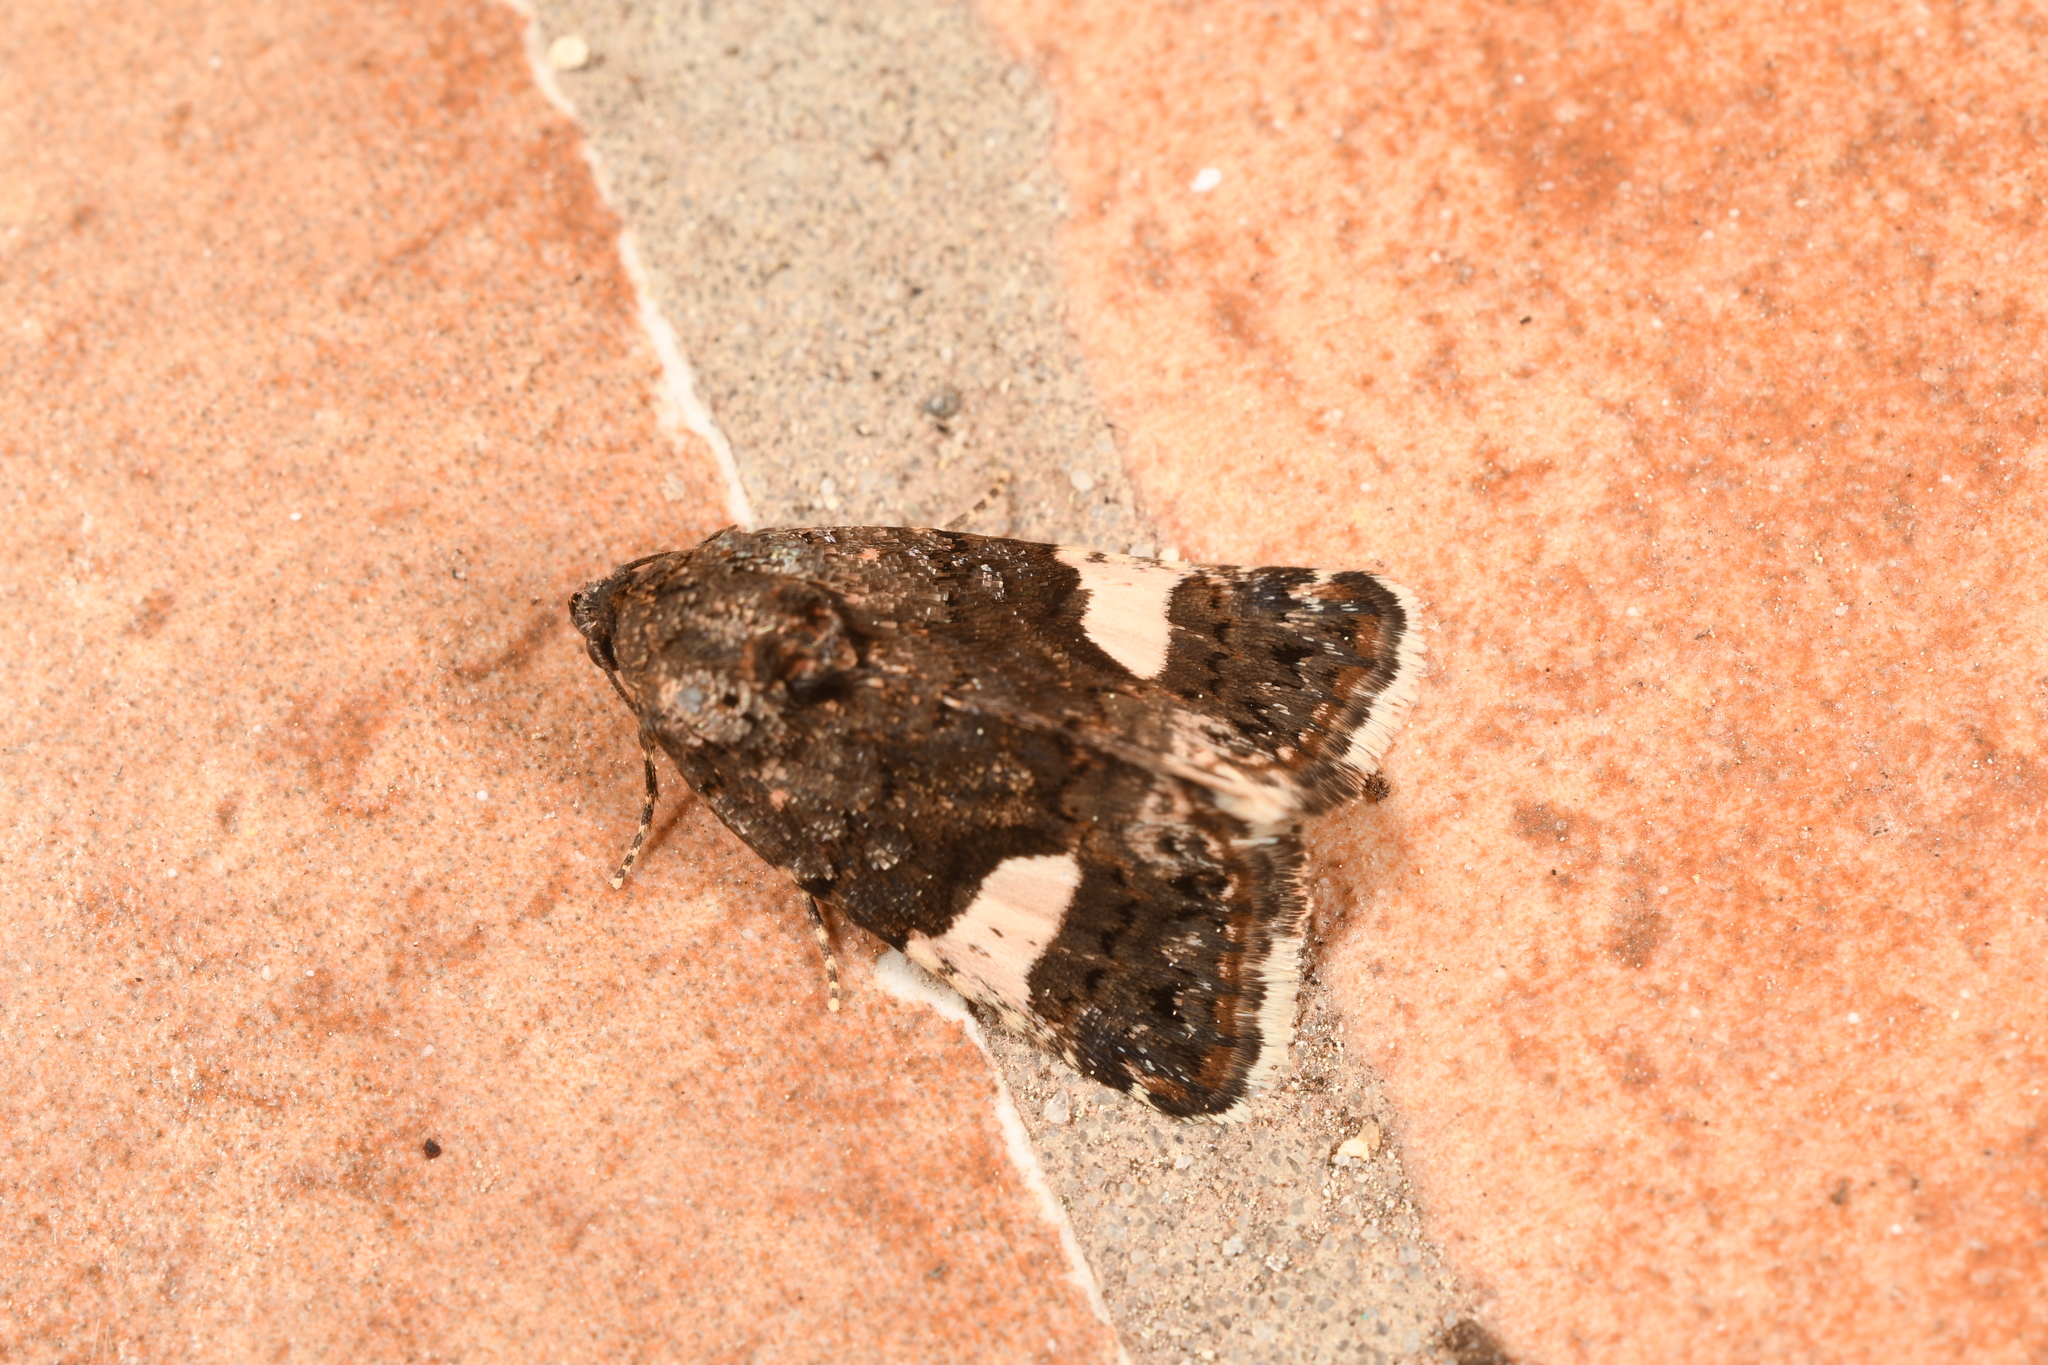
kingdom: Animalia
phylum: Arthropoda
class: Insecta
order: Lepidoptera
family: Erebidae
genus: Tyta
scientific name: Tyta luctuosa
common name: Four-spotted
